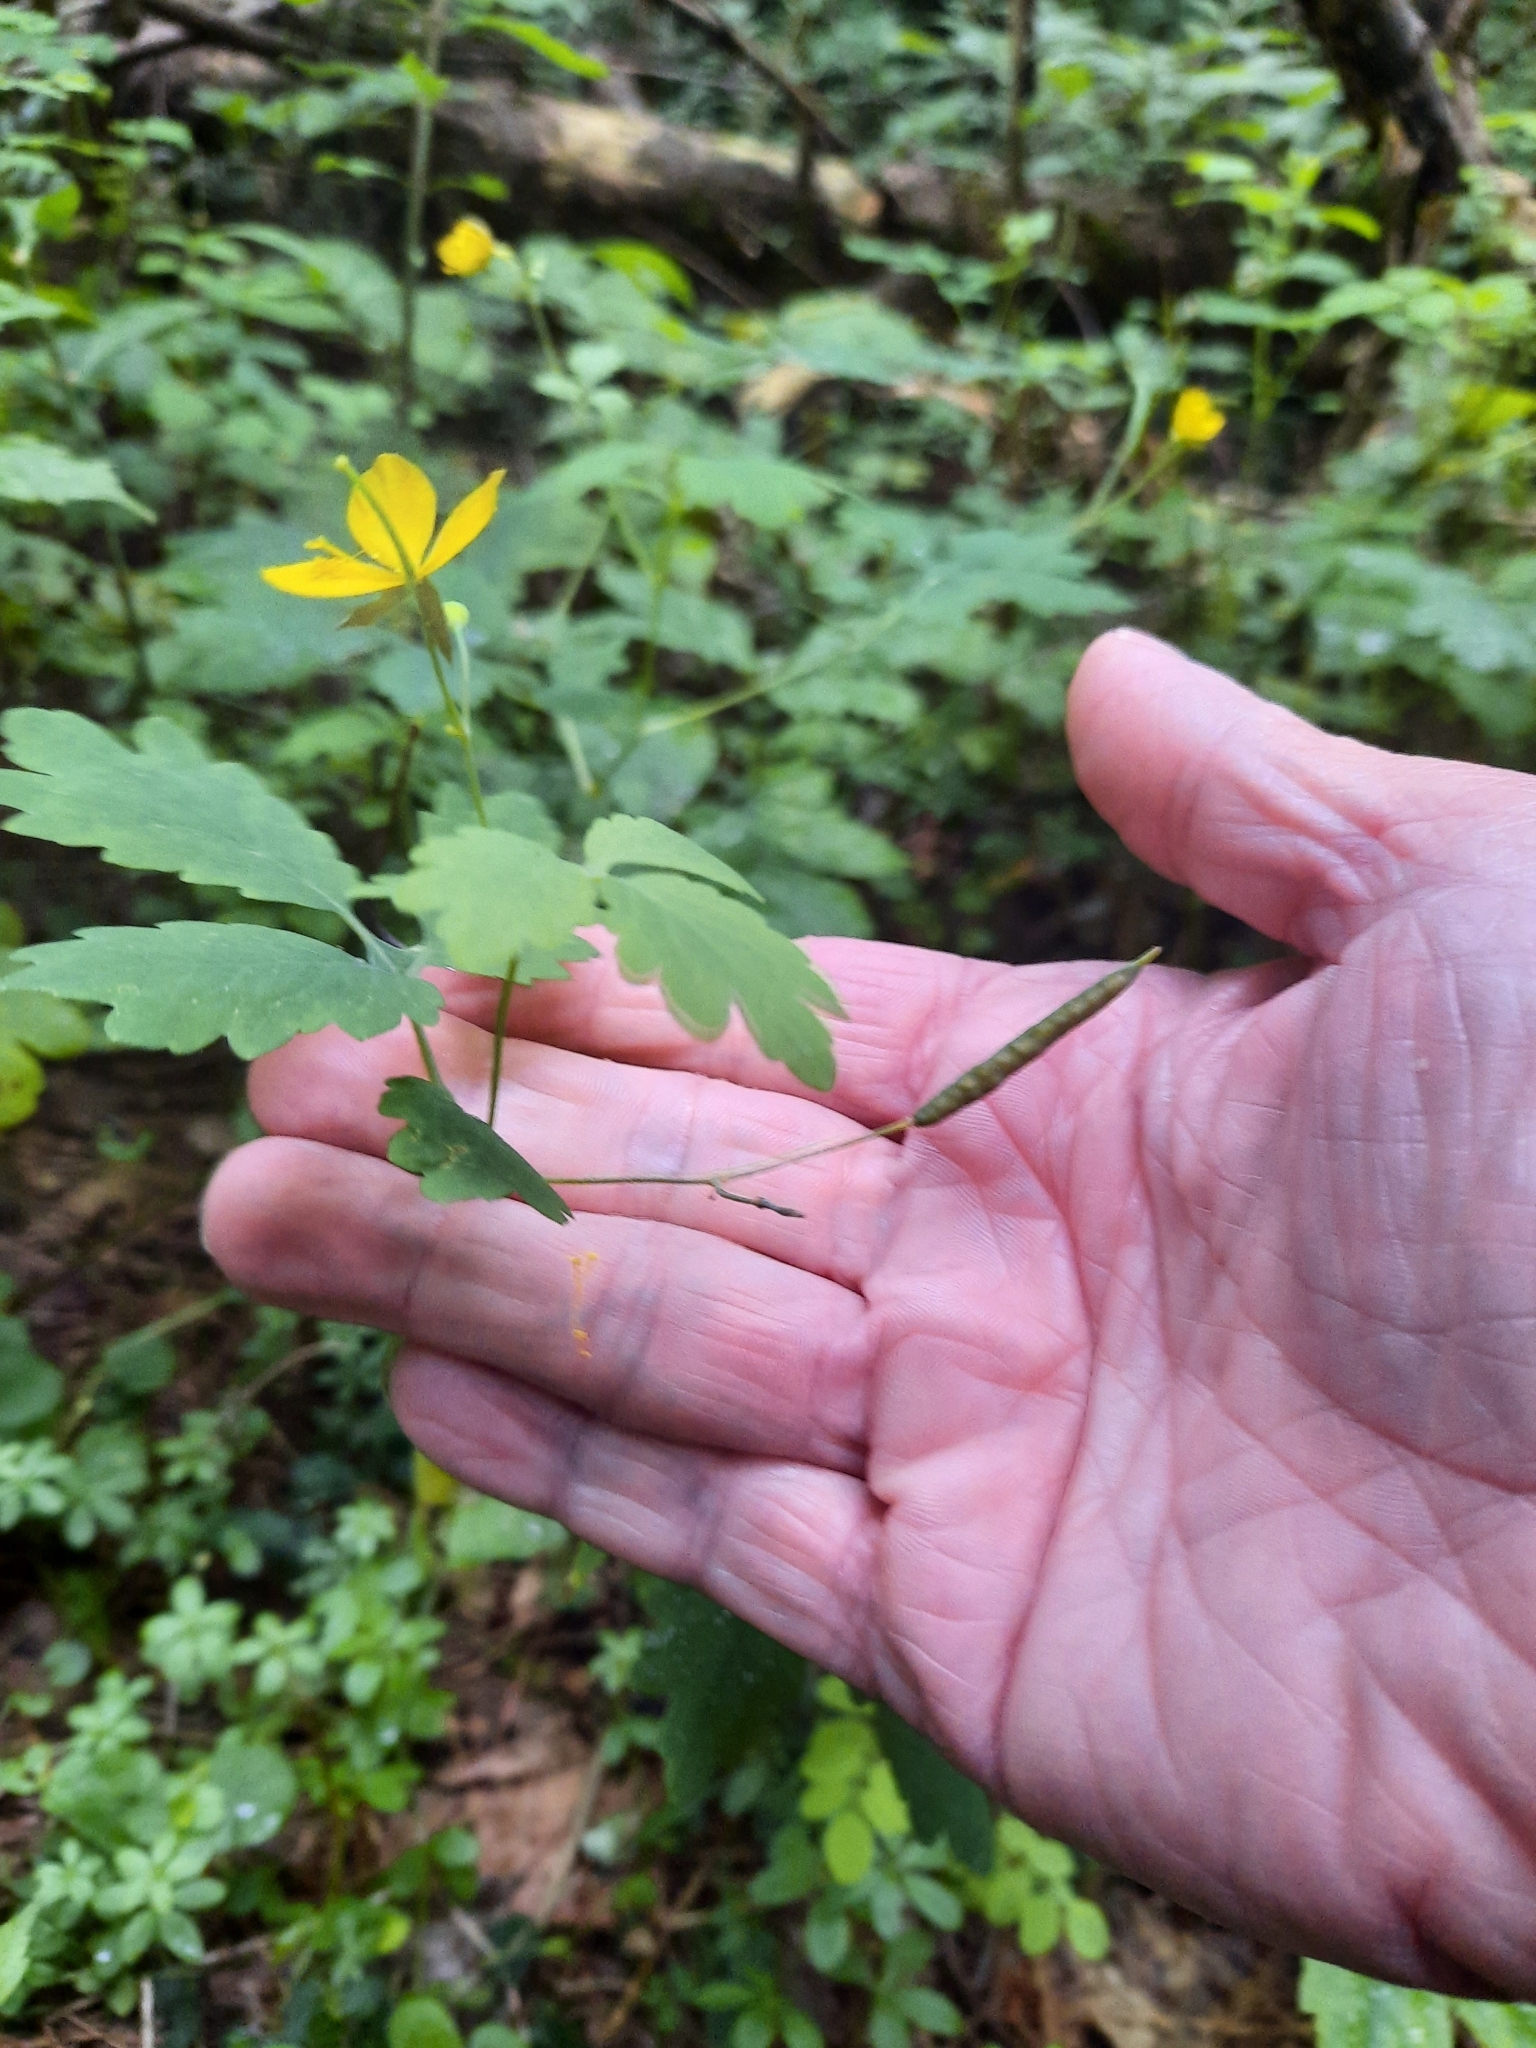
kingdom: Plantae
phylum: Tracheophyta
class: Magnoliopsida
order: Ranunculales
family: Papaveraceae
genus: Chelidonium
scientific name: Chelidonium majus
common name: Greater celandine
